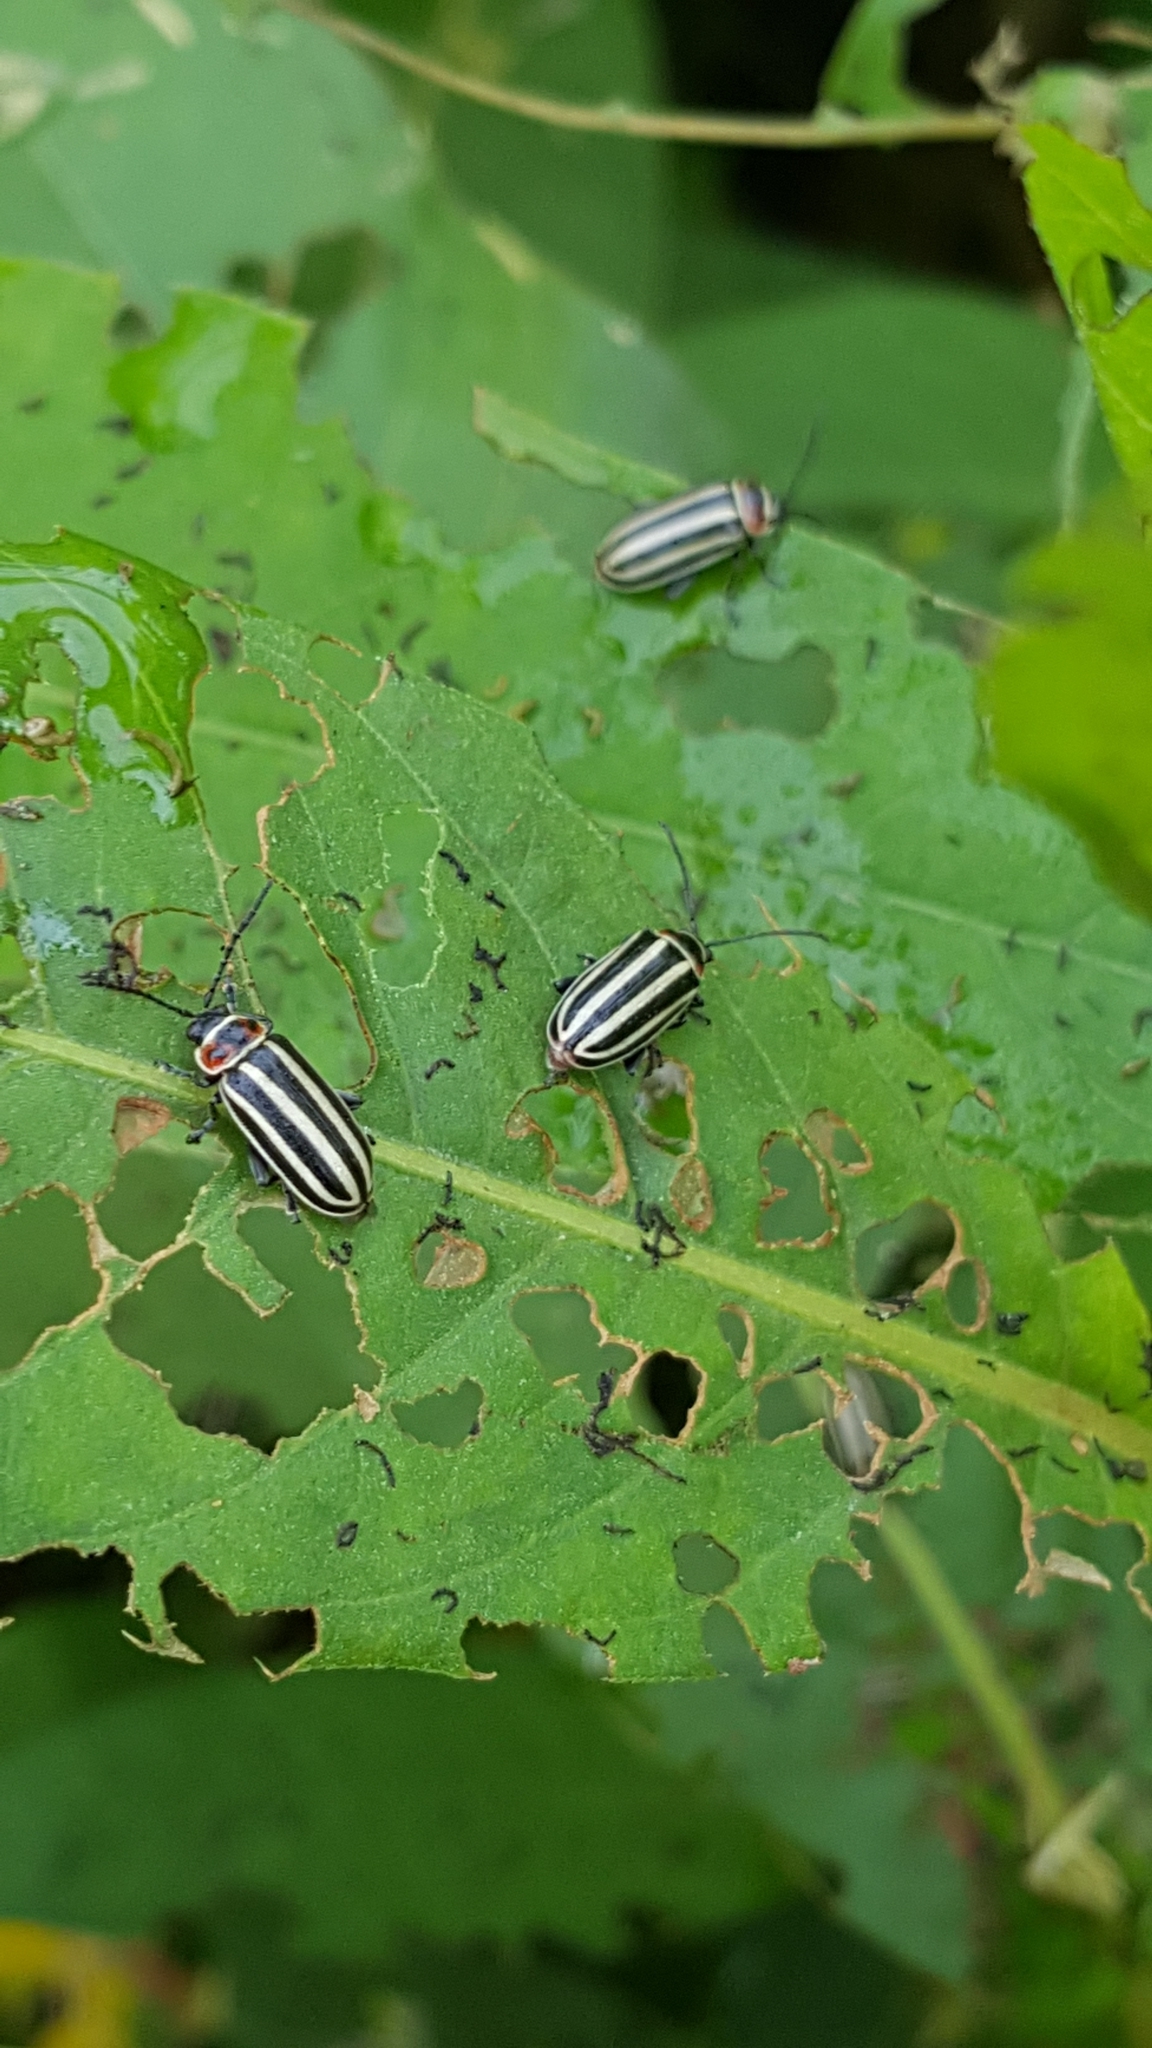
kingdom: Animalia
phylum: Arthropoda
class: Insecta
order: Coleoptera
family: Chrysomelidae
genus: Disonycha
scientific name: Disonycha procera
